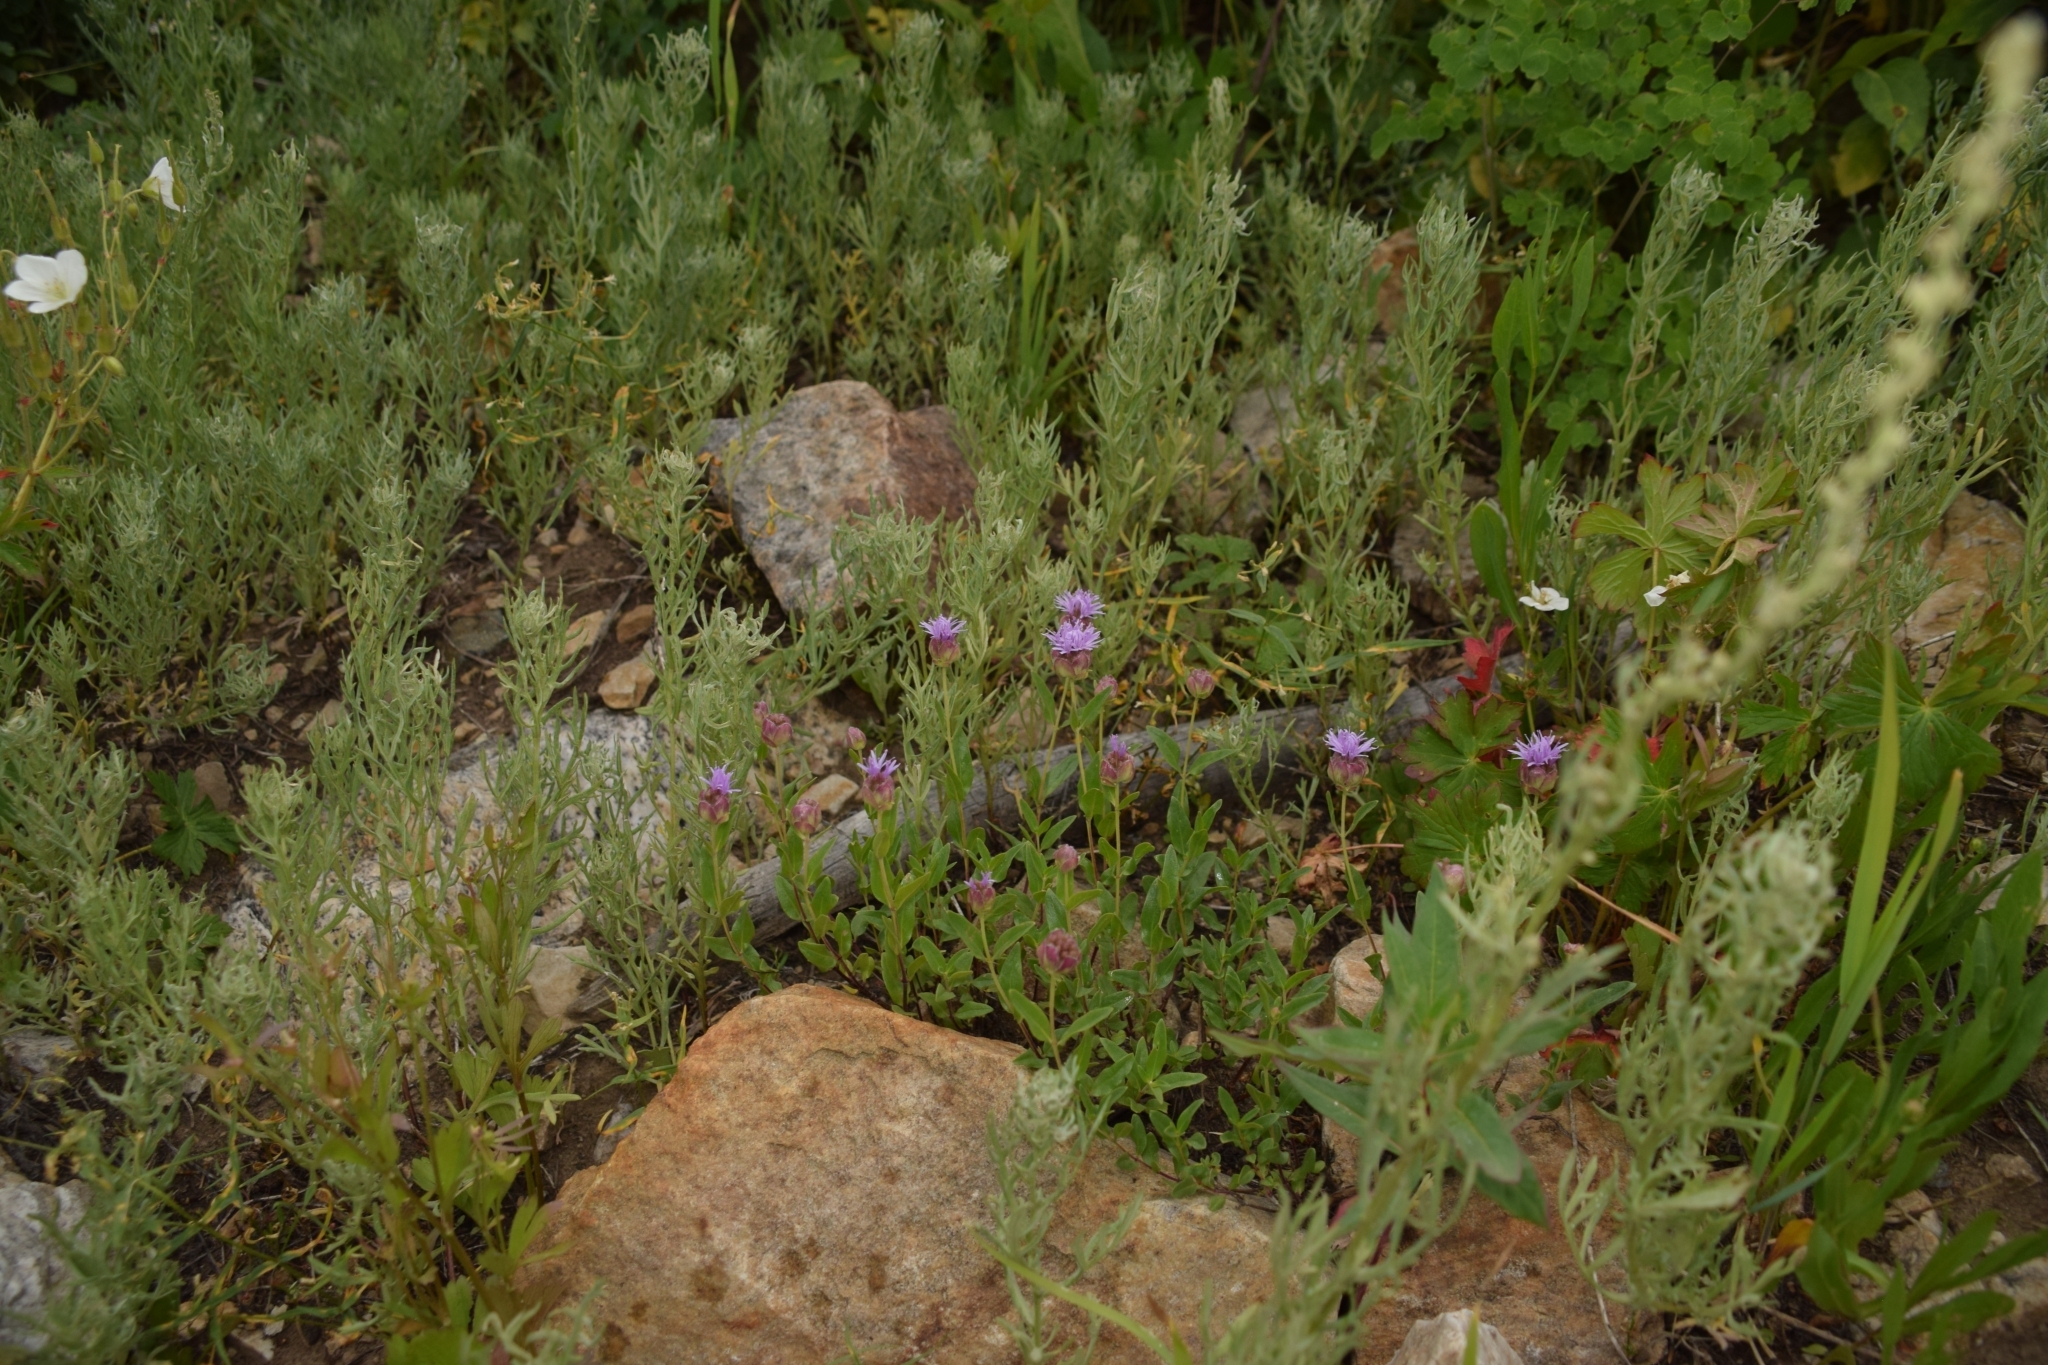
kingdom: Plantae
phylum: Tracheophyta
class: Magnoliopsida
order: Lamiales
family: Lamiaceae
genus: Monardella
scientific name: Monardella odoratissima
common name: Pacific monardella
